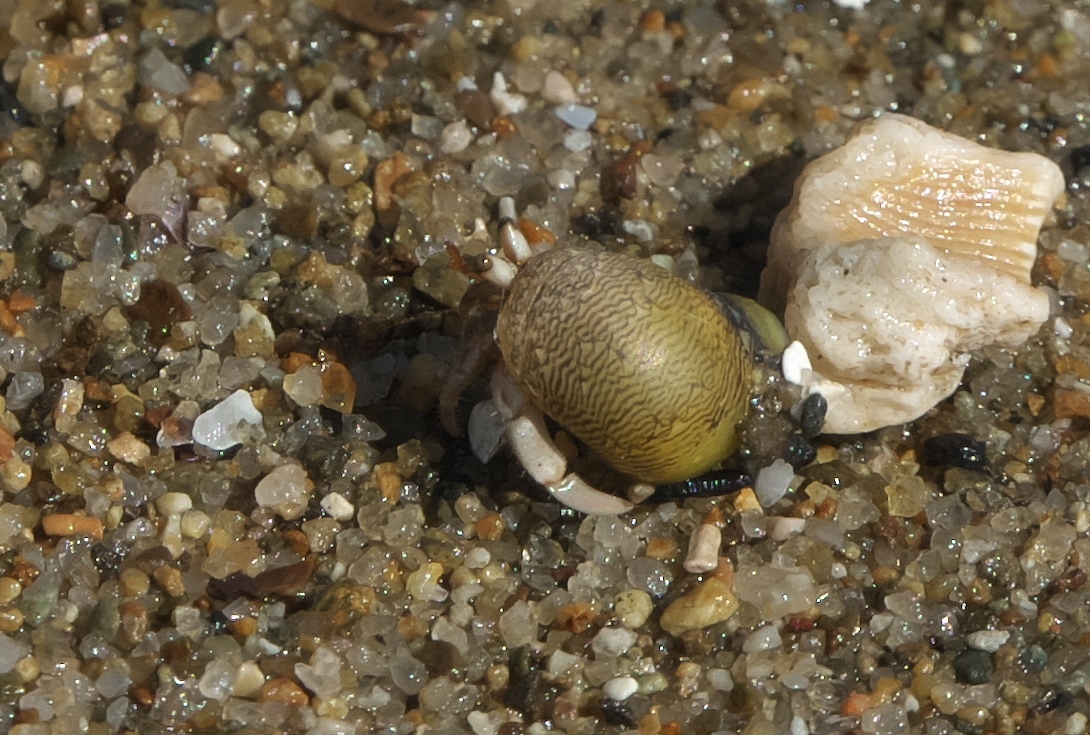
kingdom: Animalia
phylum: Arthropoda
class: Malacostraca
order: Decapoda
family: Coenobitidae
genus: Coenobita
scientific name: Coenobita rugosus
